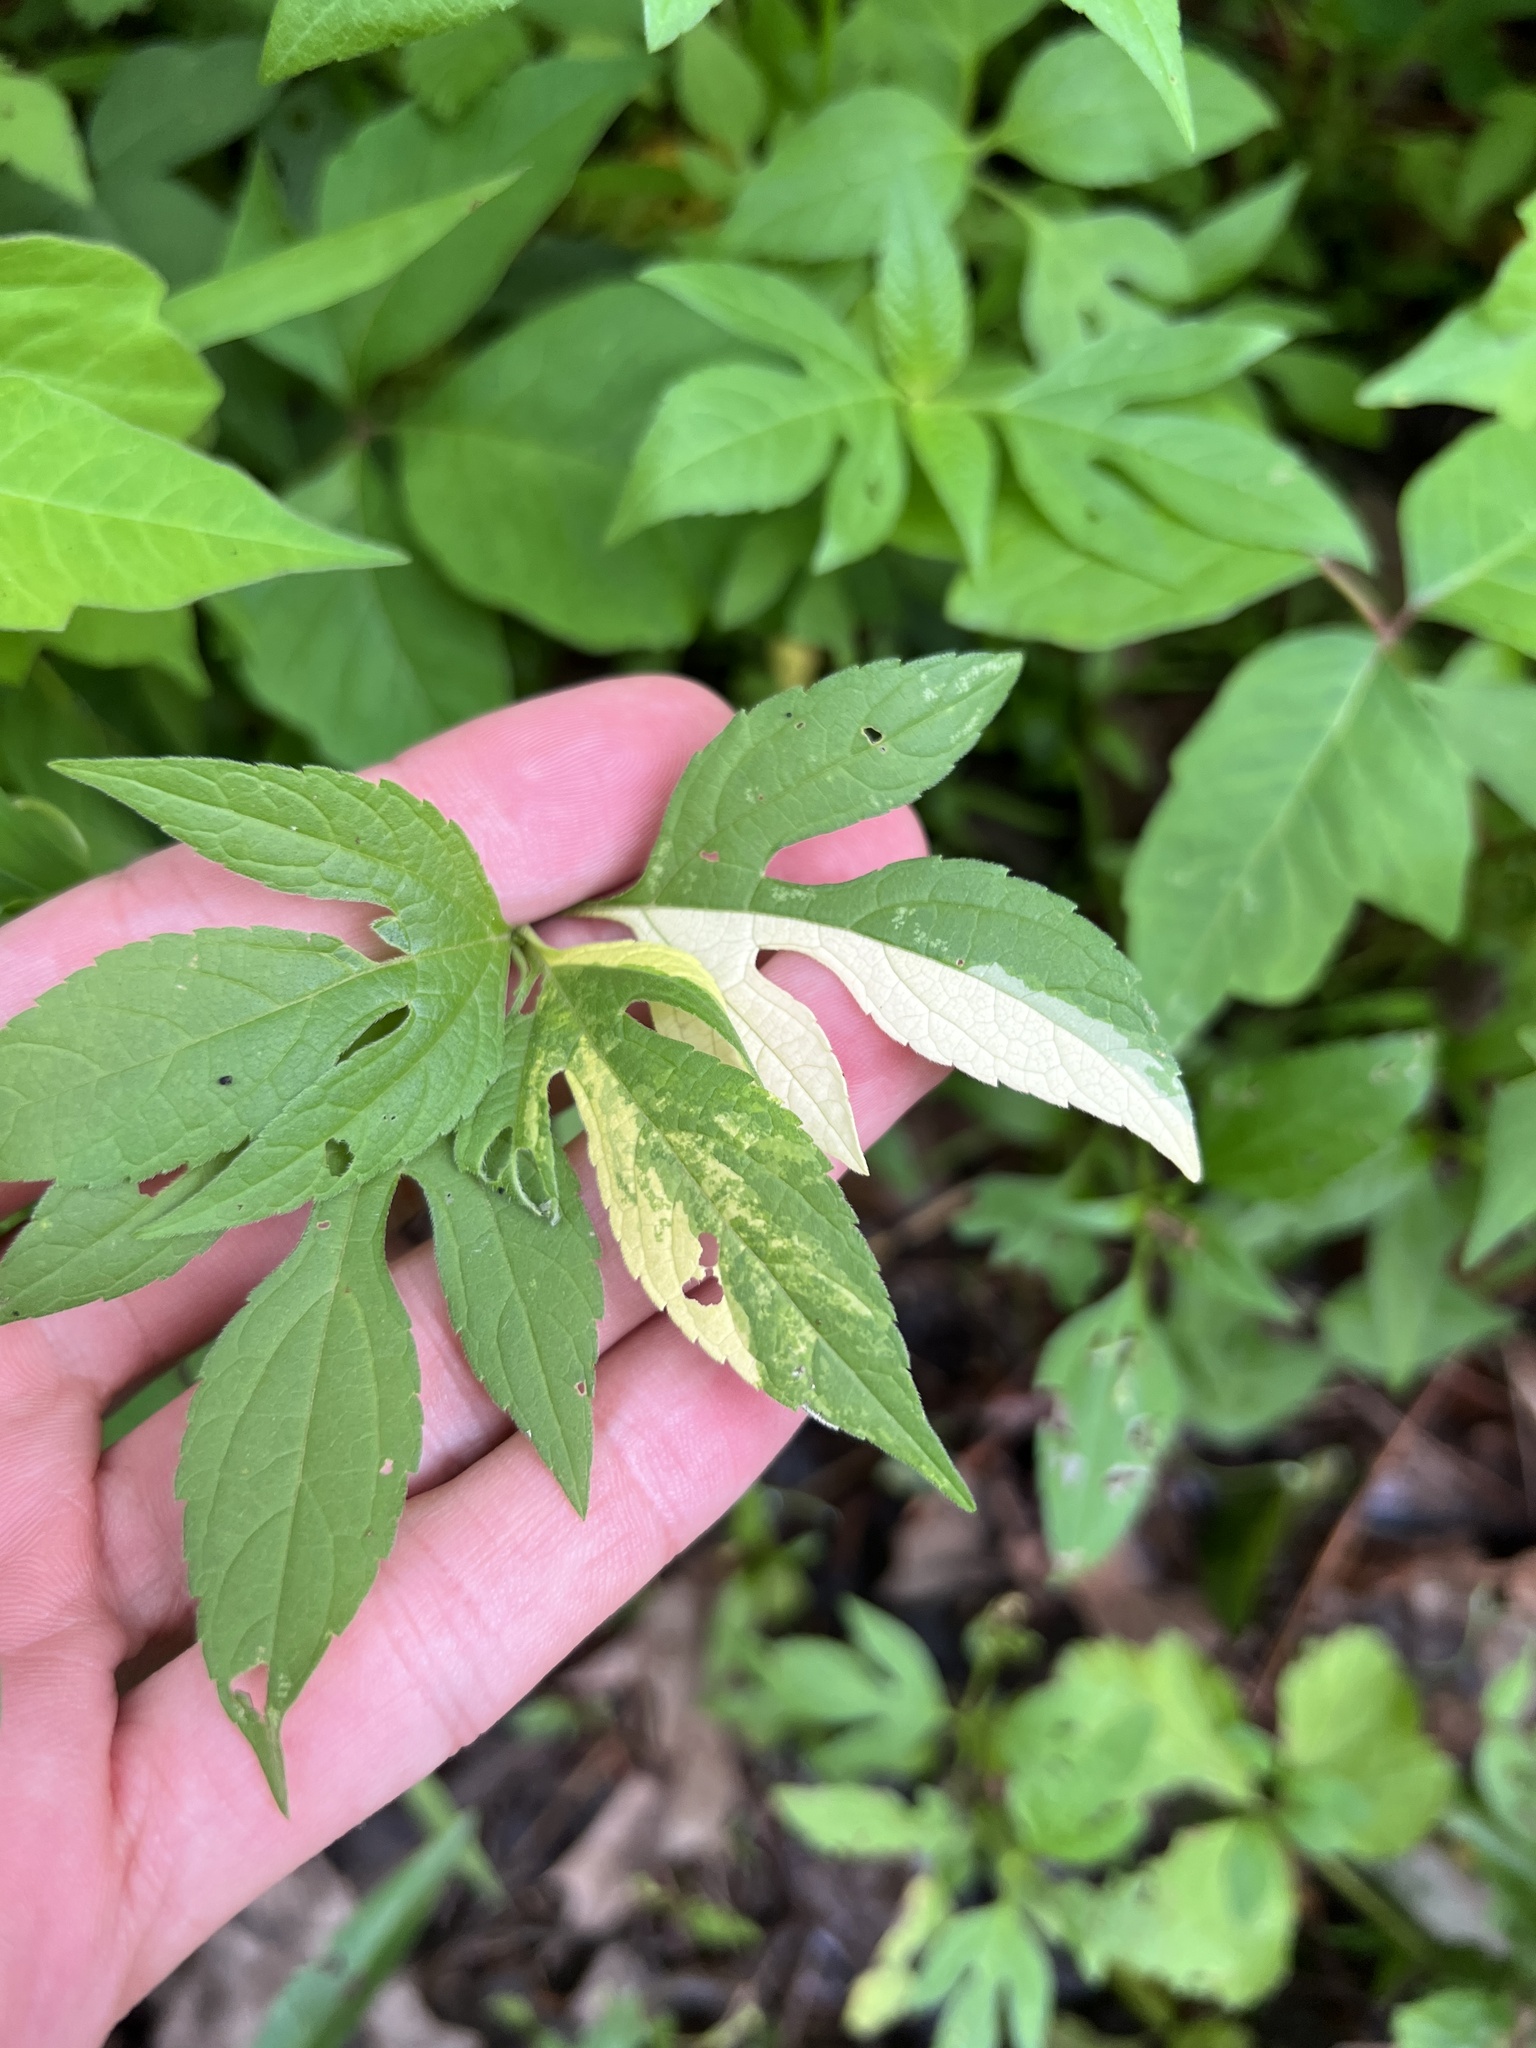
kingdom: Plantae
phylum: Tracheophyta
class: Magnoliopsida
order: Asterales
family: Asteraceae
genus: Ambrosia
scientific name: Ambrosia trifida
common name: Giant ragweed
